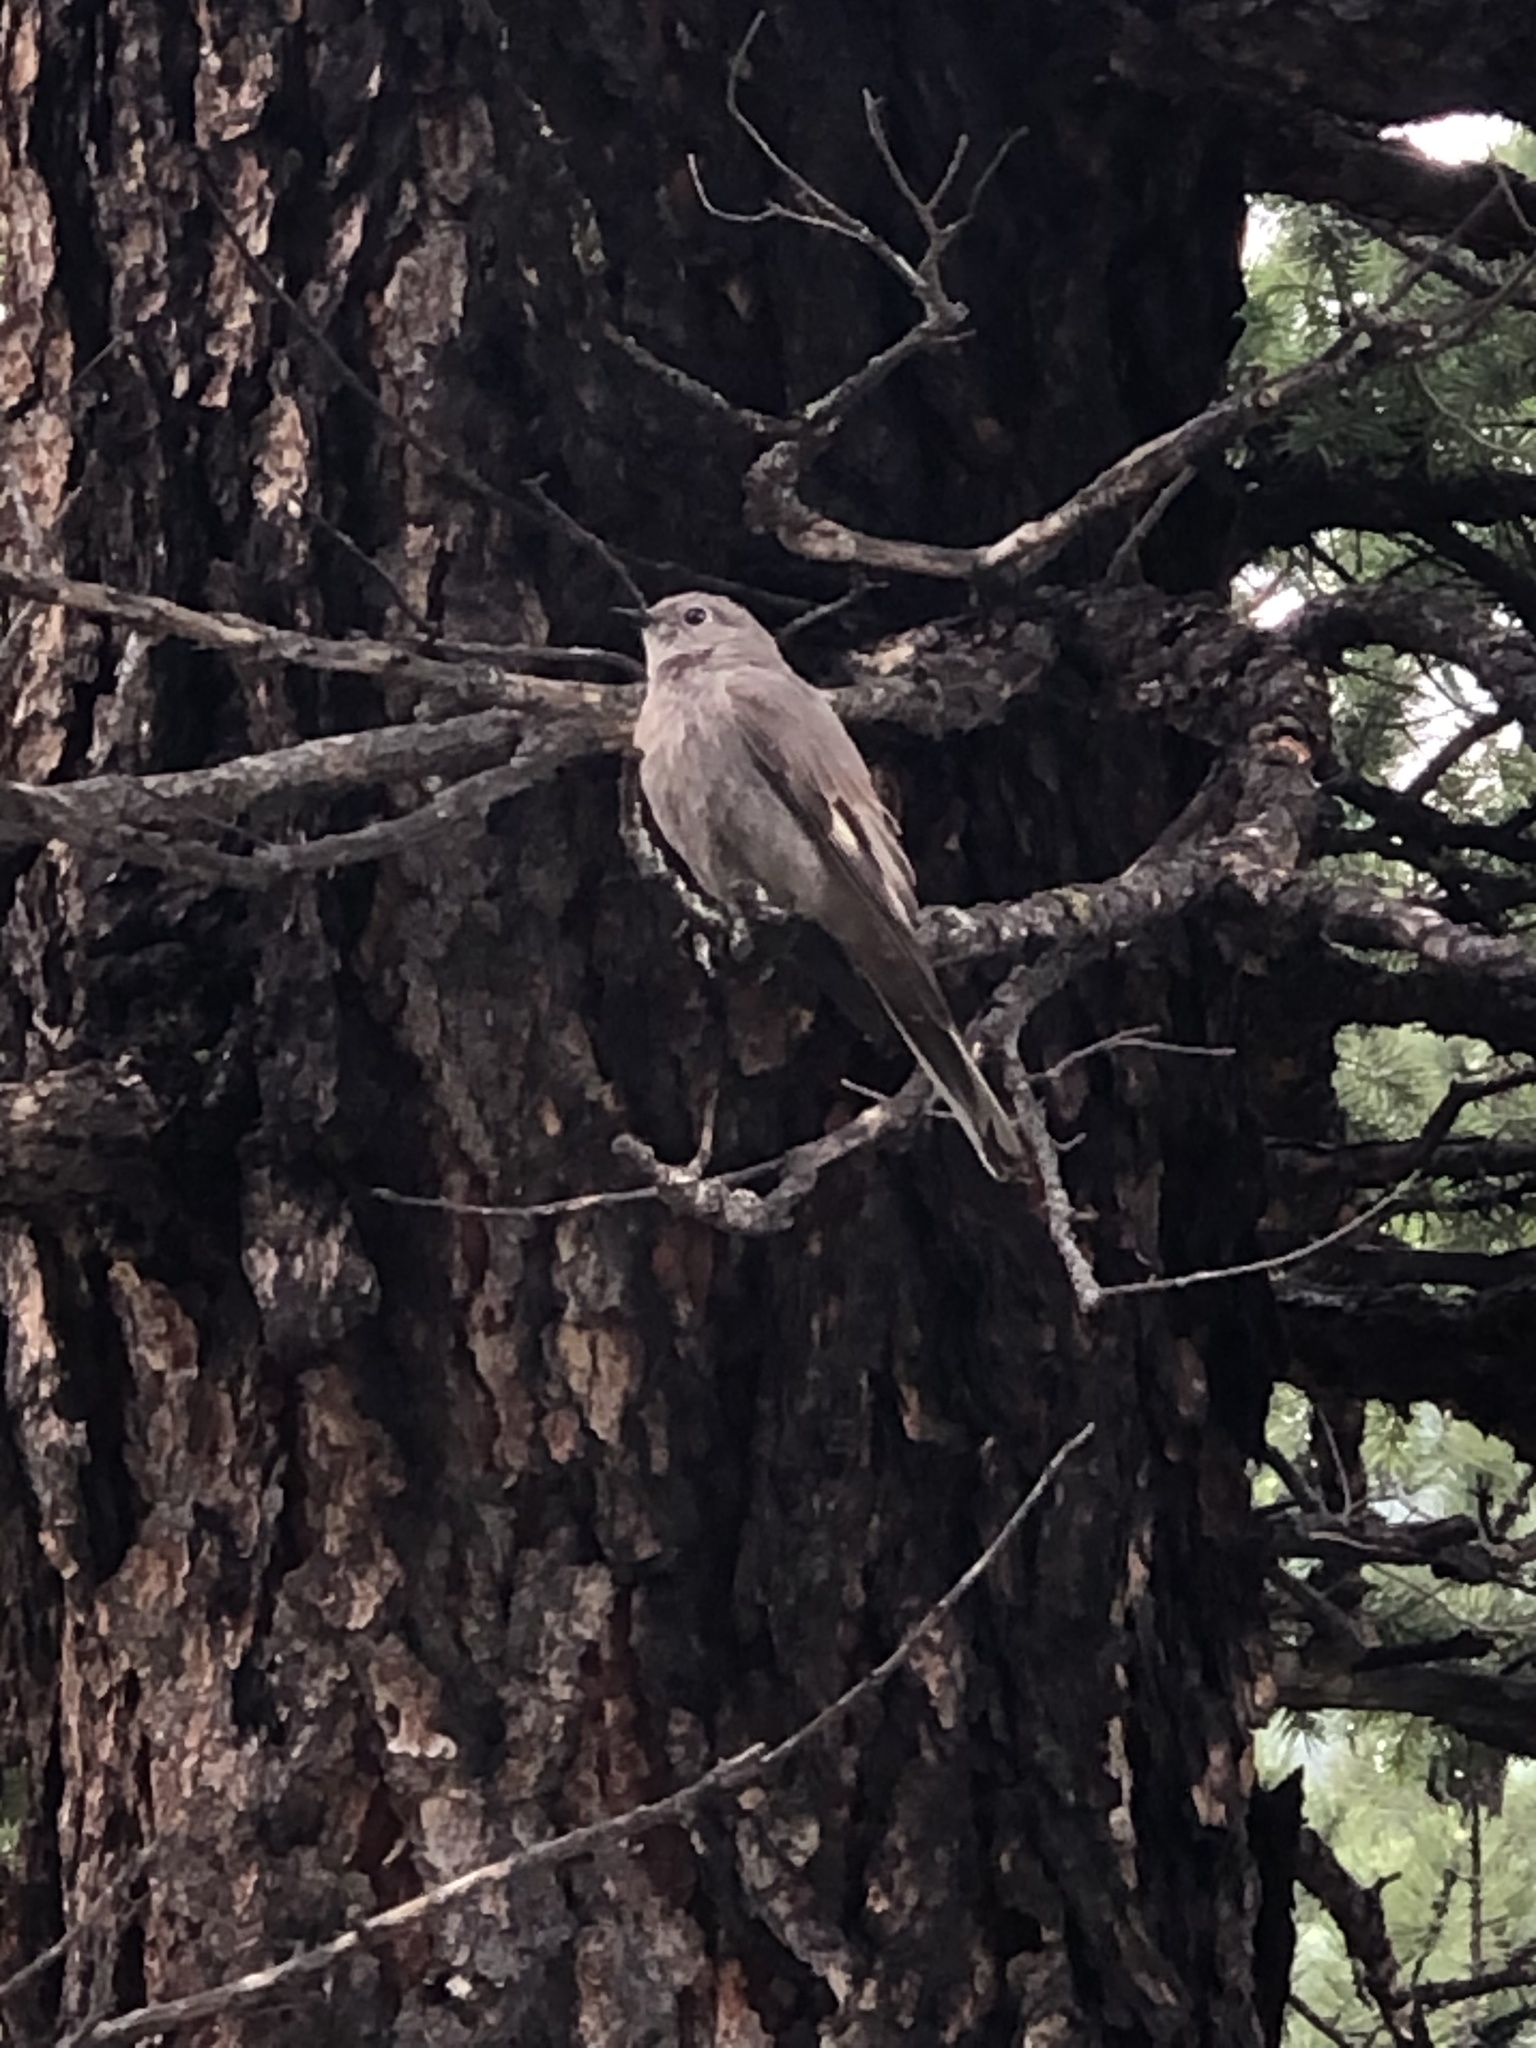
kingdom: Animalia
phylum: Chordata
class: Aves
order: Passeriformes
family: Turdidae
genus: Myadestes
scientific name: Myadestes townsendi
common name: Townsend's solitaire
